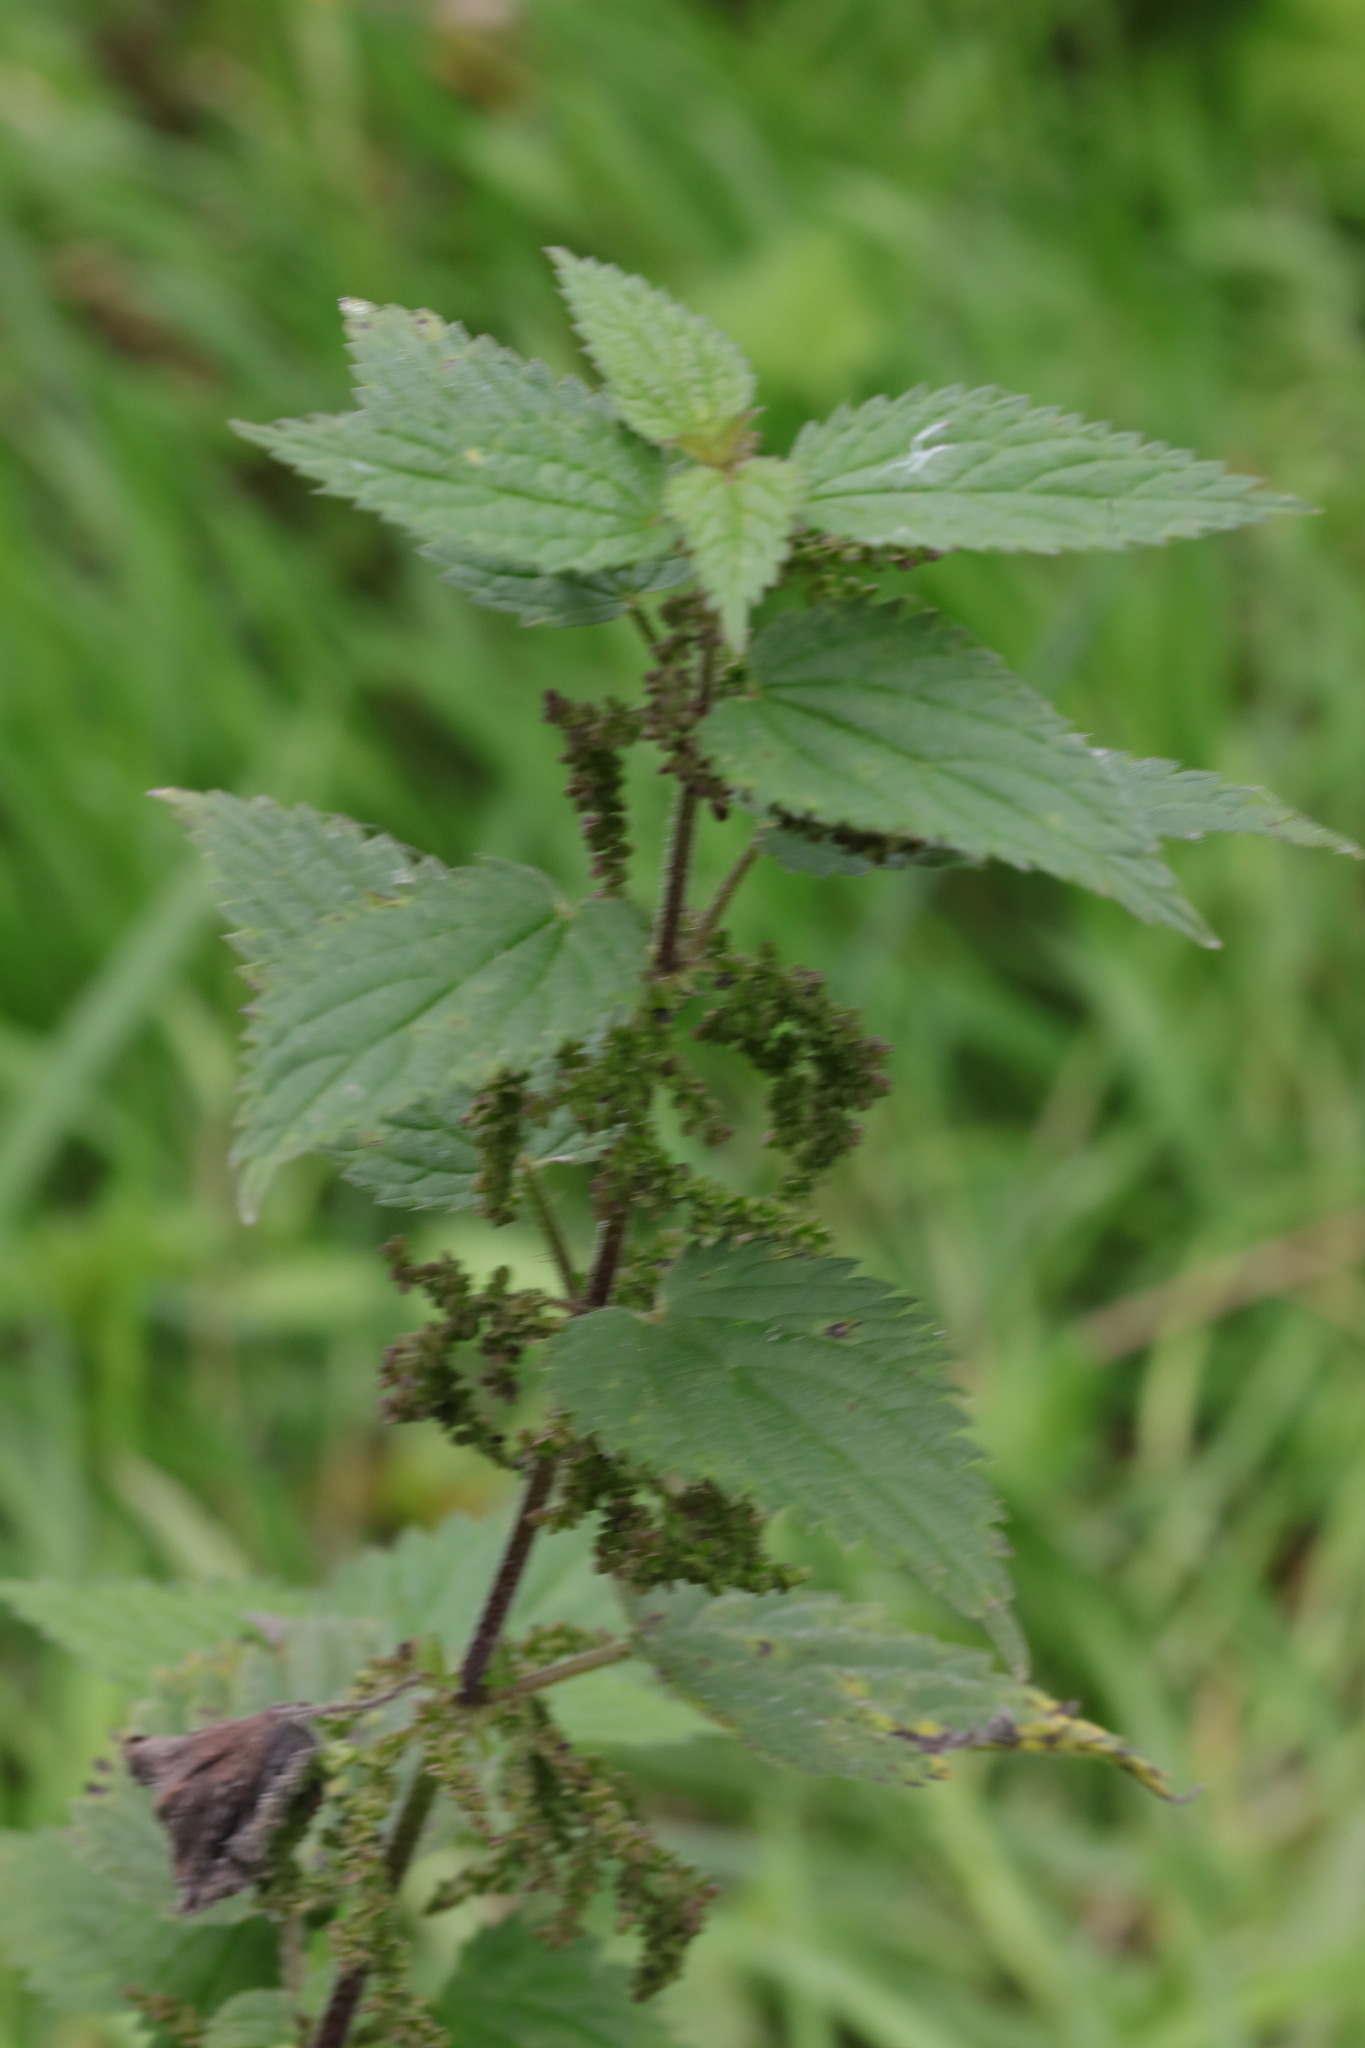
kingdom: Plantae
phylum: Tracheophyta
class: Magnoliopsida
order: Rosales
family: Urticaceae
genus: Urtica
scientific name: Urtica dioica
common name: Common nettle
